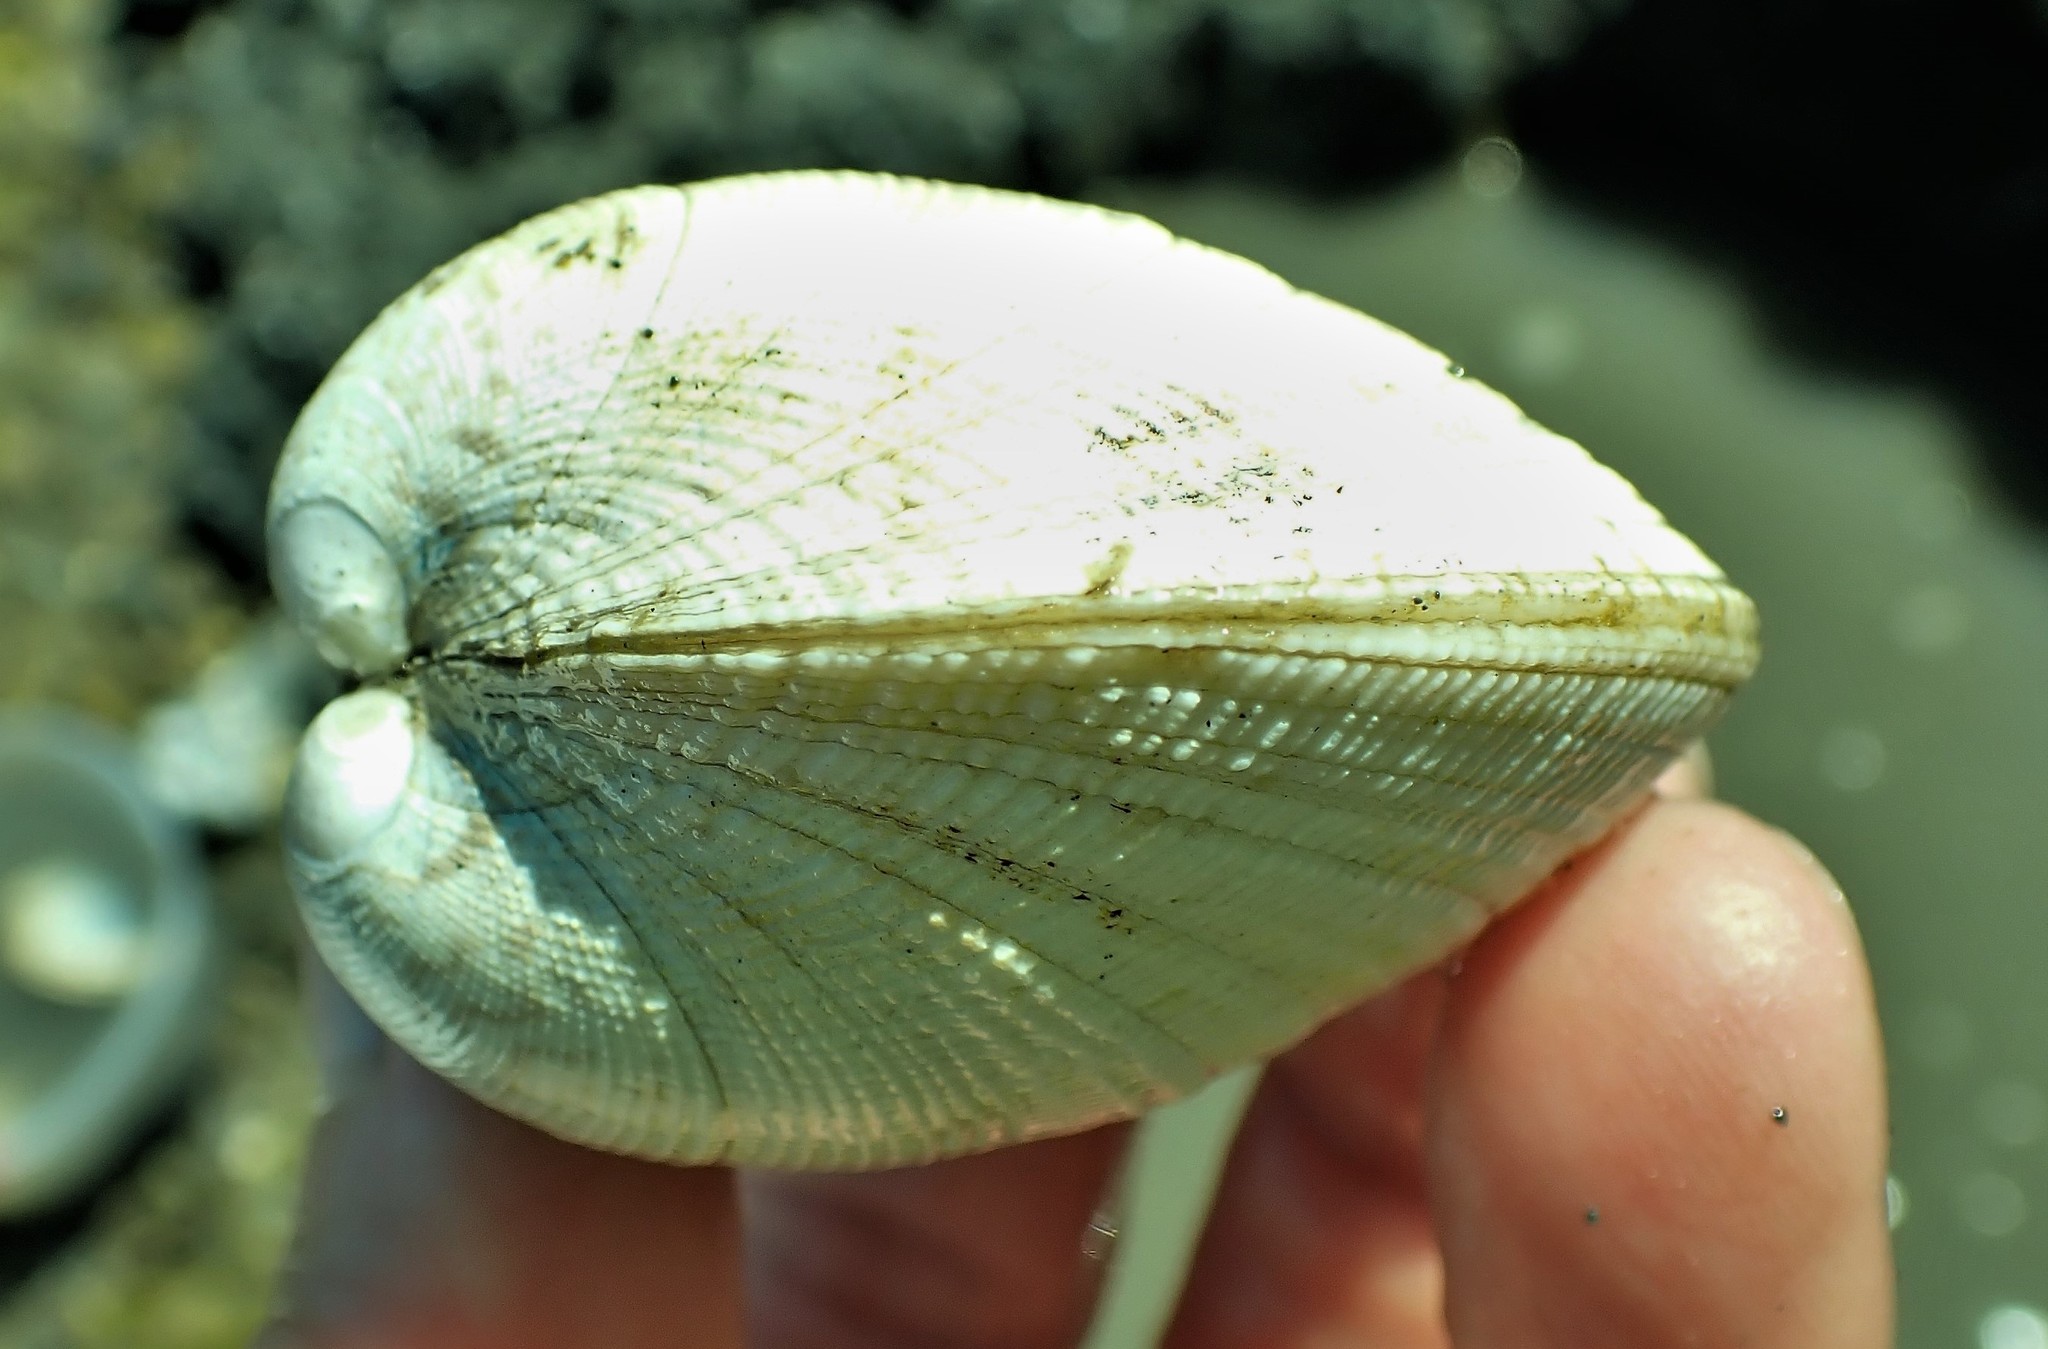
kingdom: Animalia
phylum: Mollusca
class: Bivalvia
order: Venerida
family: Veneridae
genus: Leukoma
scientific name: Leukoma staminea
